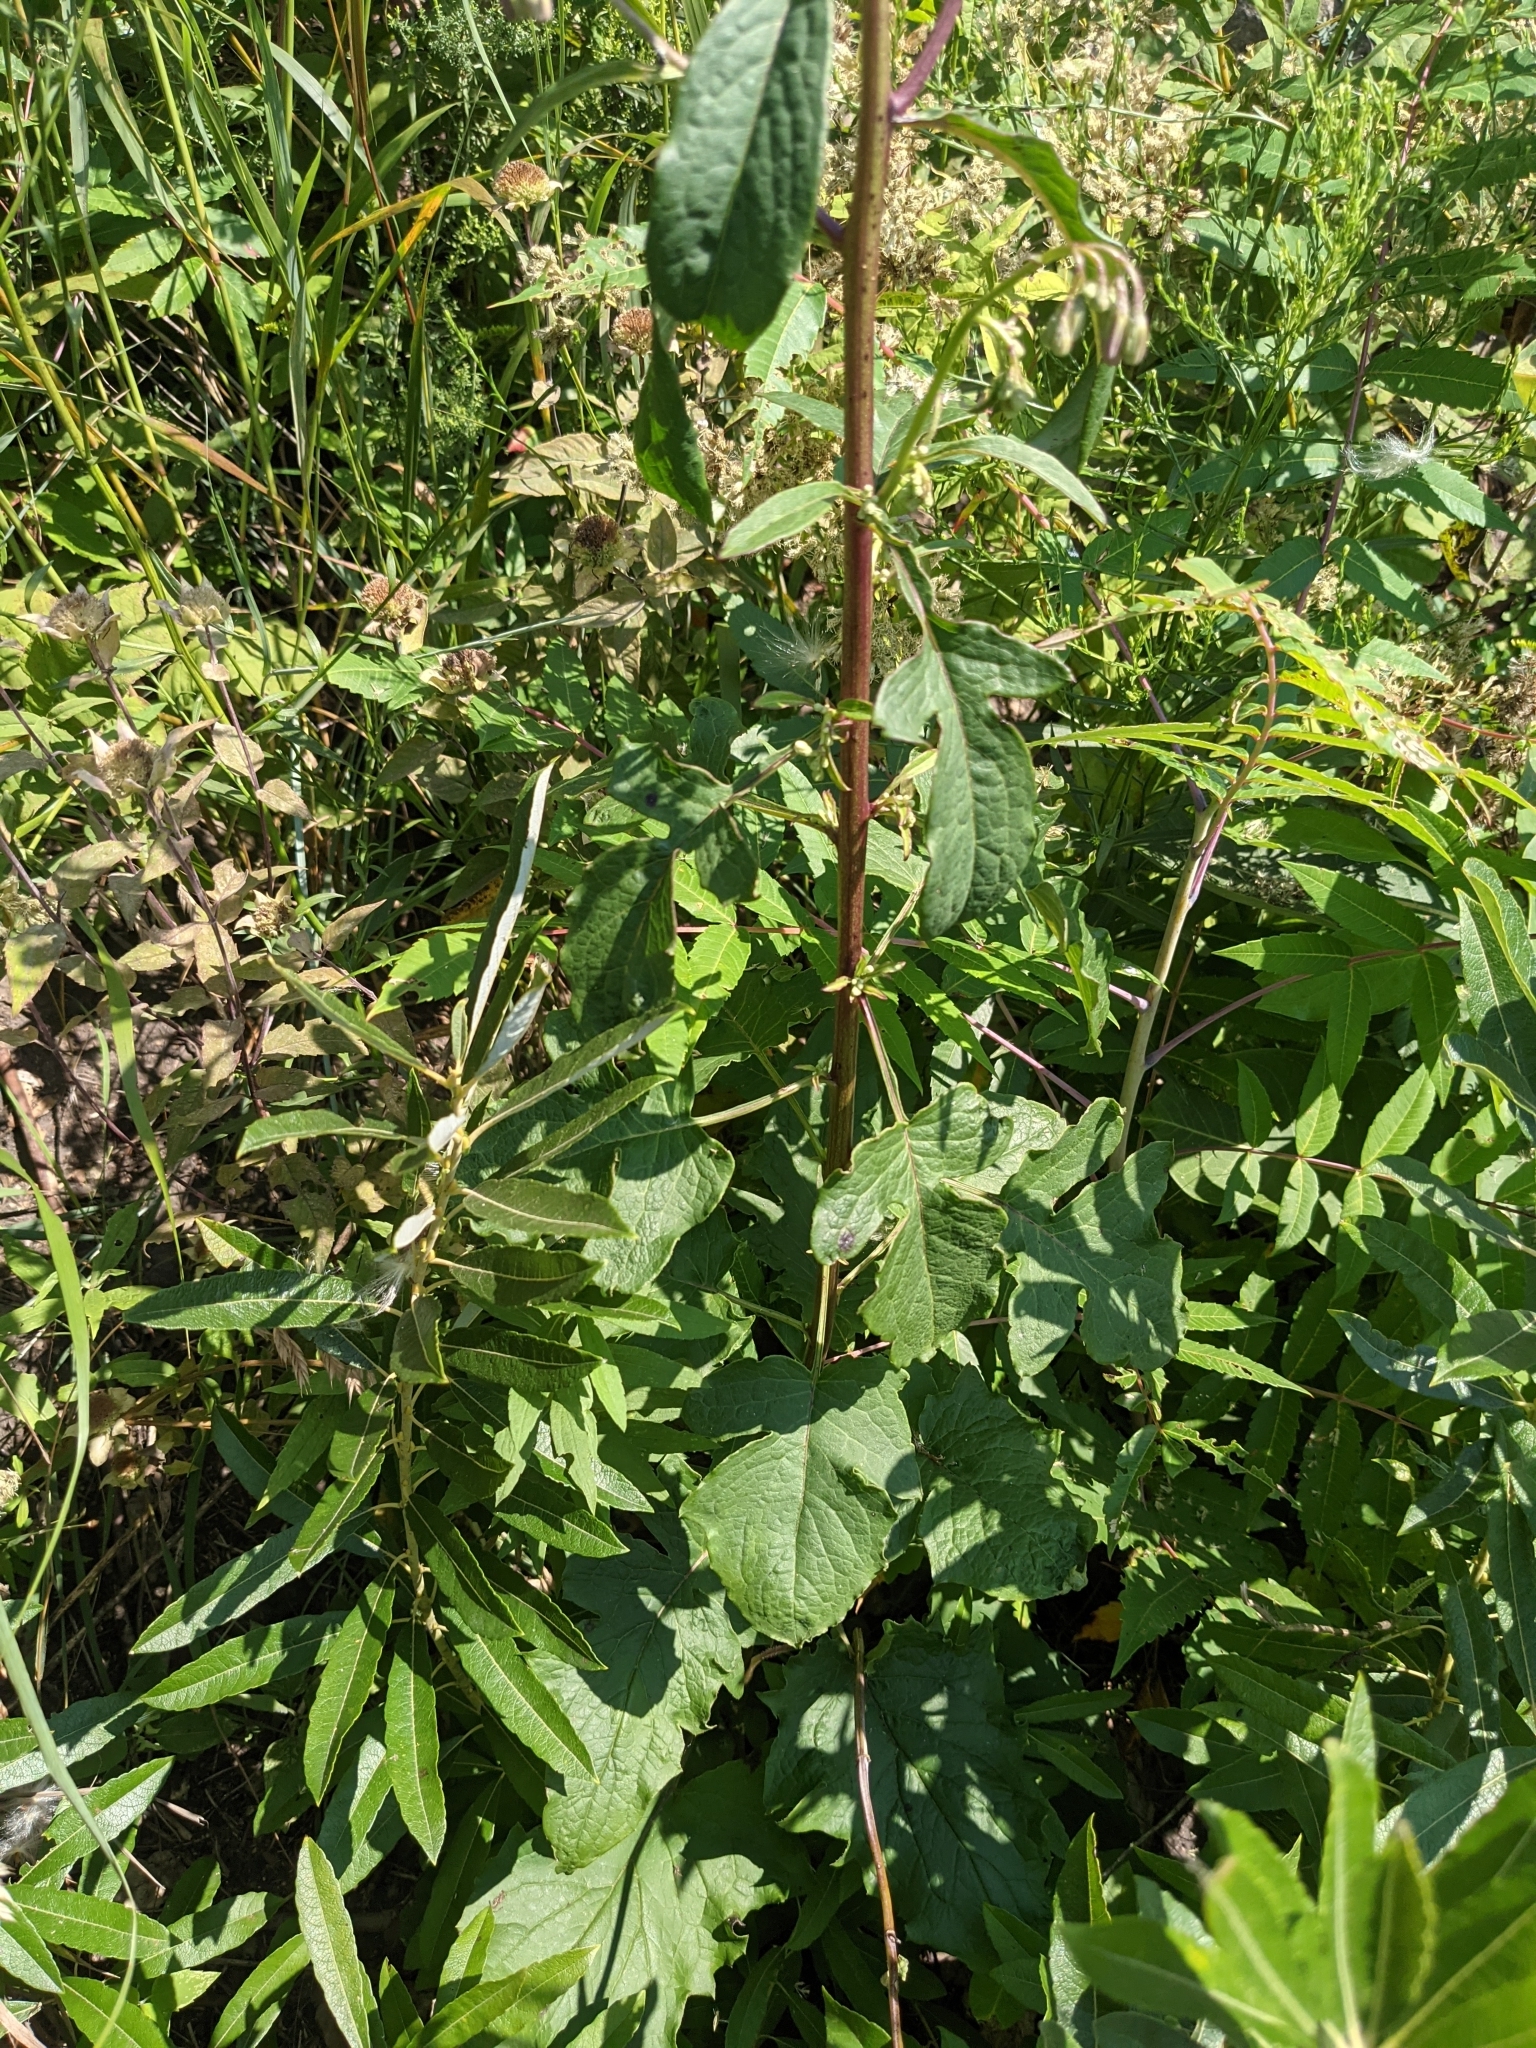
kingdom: Plantae
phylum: Tracheophyta
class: Magnoliopsida
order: Asterales
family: Asteraceae
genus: Nabalus
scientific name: Nabalus albus
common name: White rattlesnakeroot
